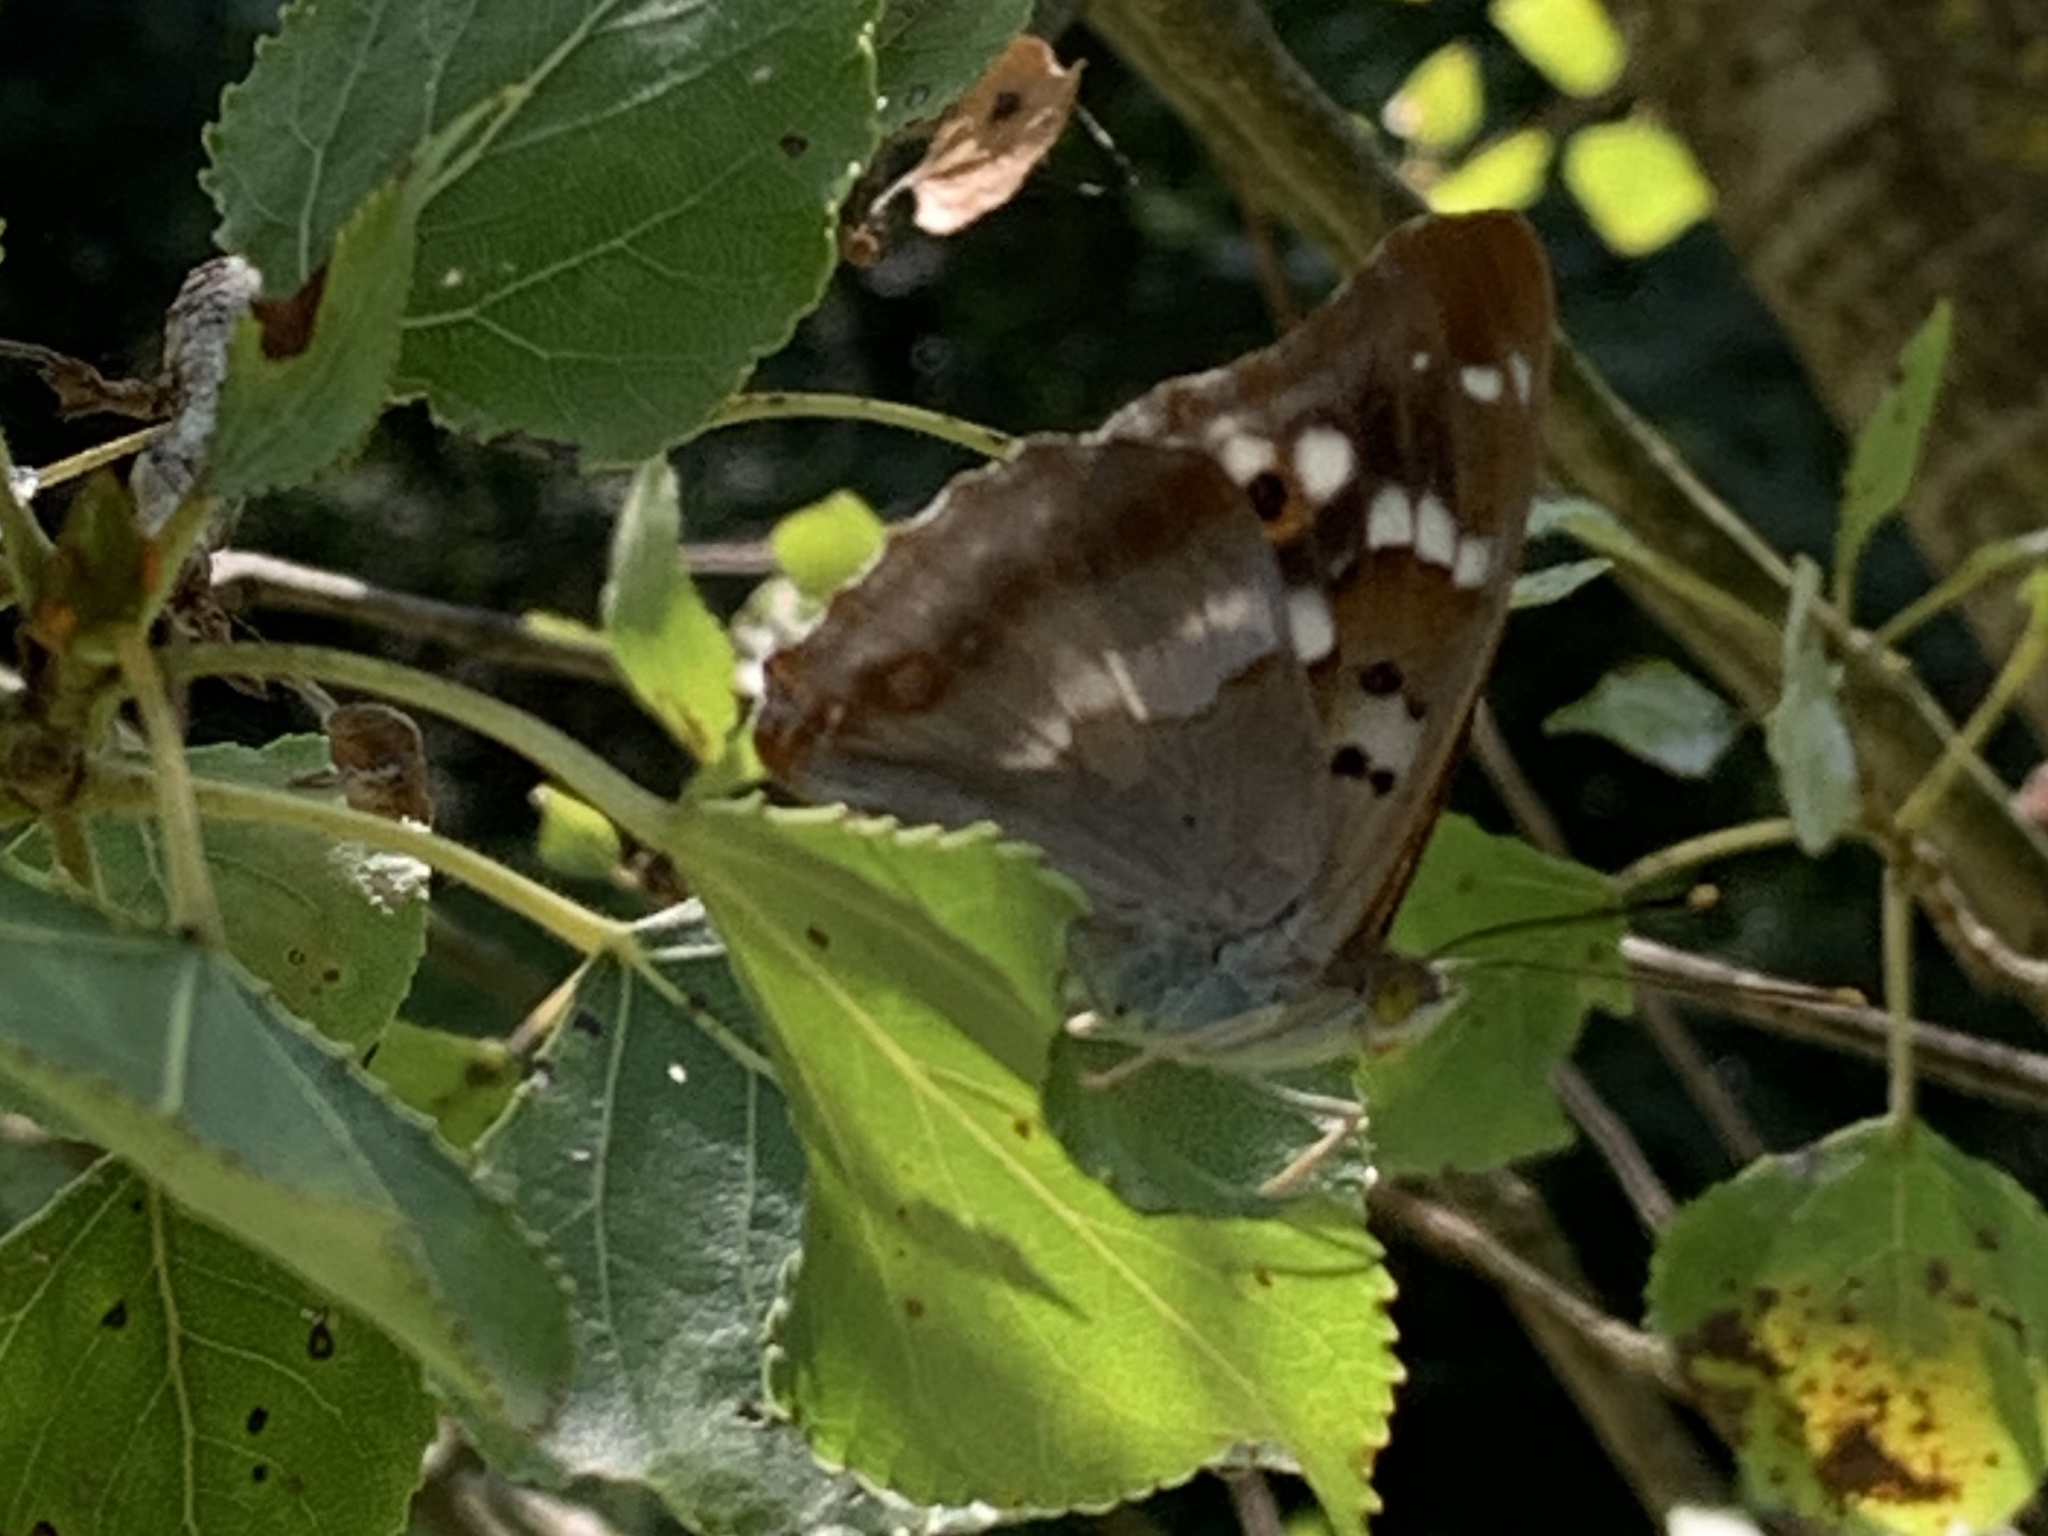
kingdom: Animalia
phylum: Arthropoda
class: Insecta
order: Lepidoptera
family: Nymphalidae
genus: Apatura
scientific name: Apatura ilia
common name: Lesser purple emperor
